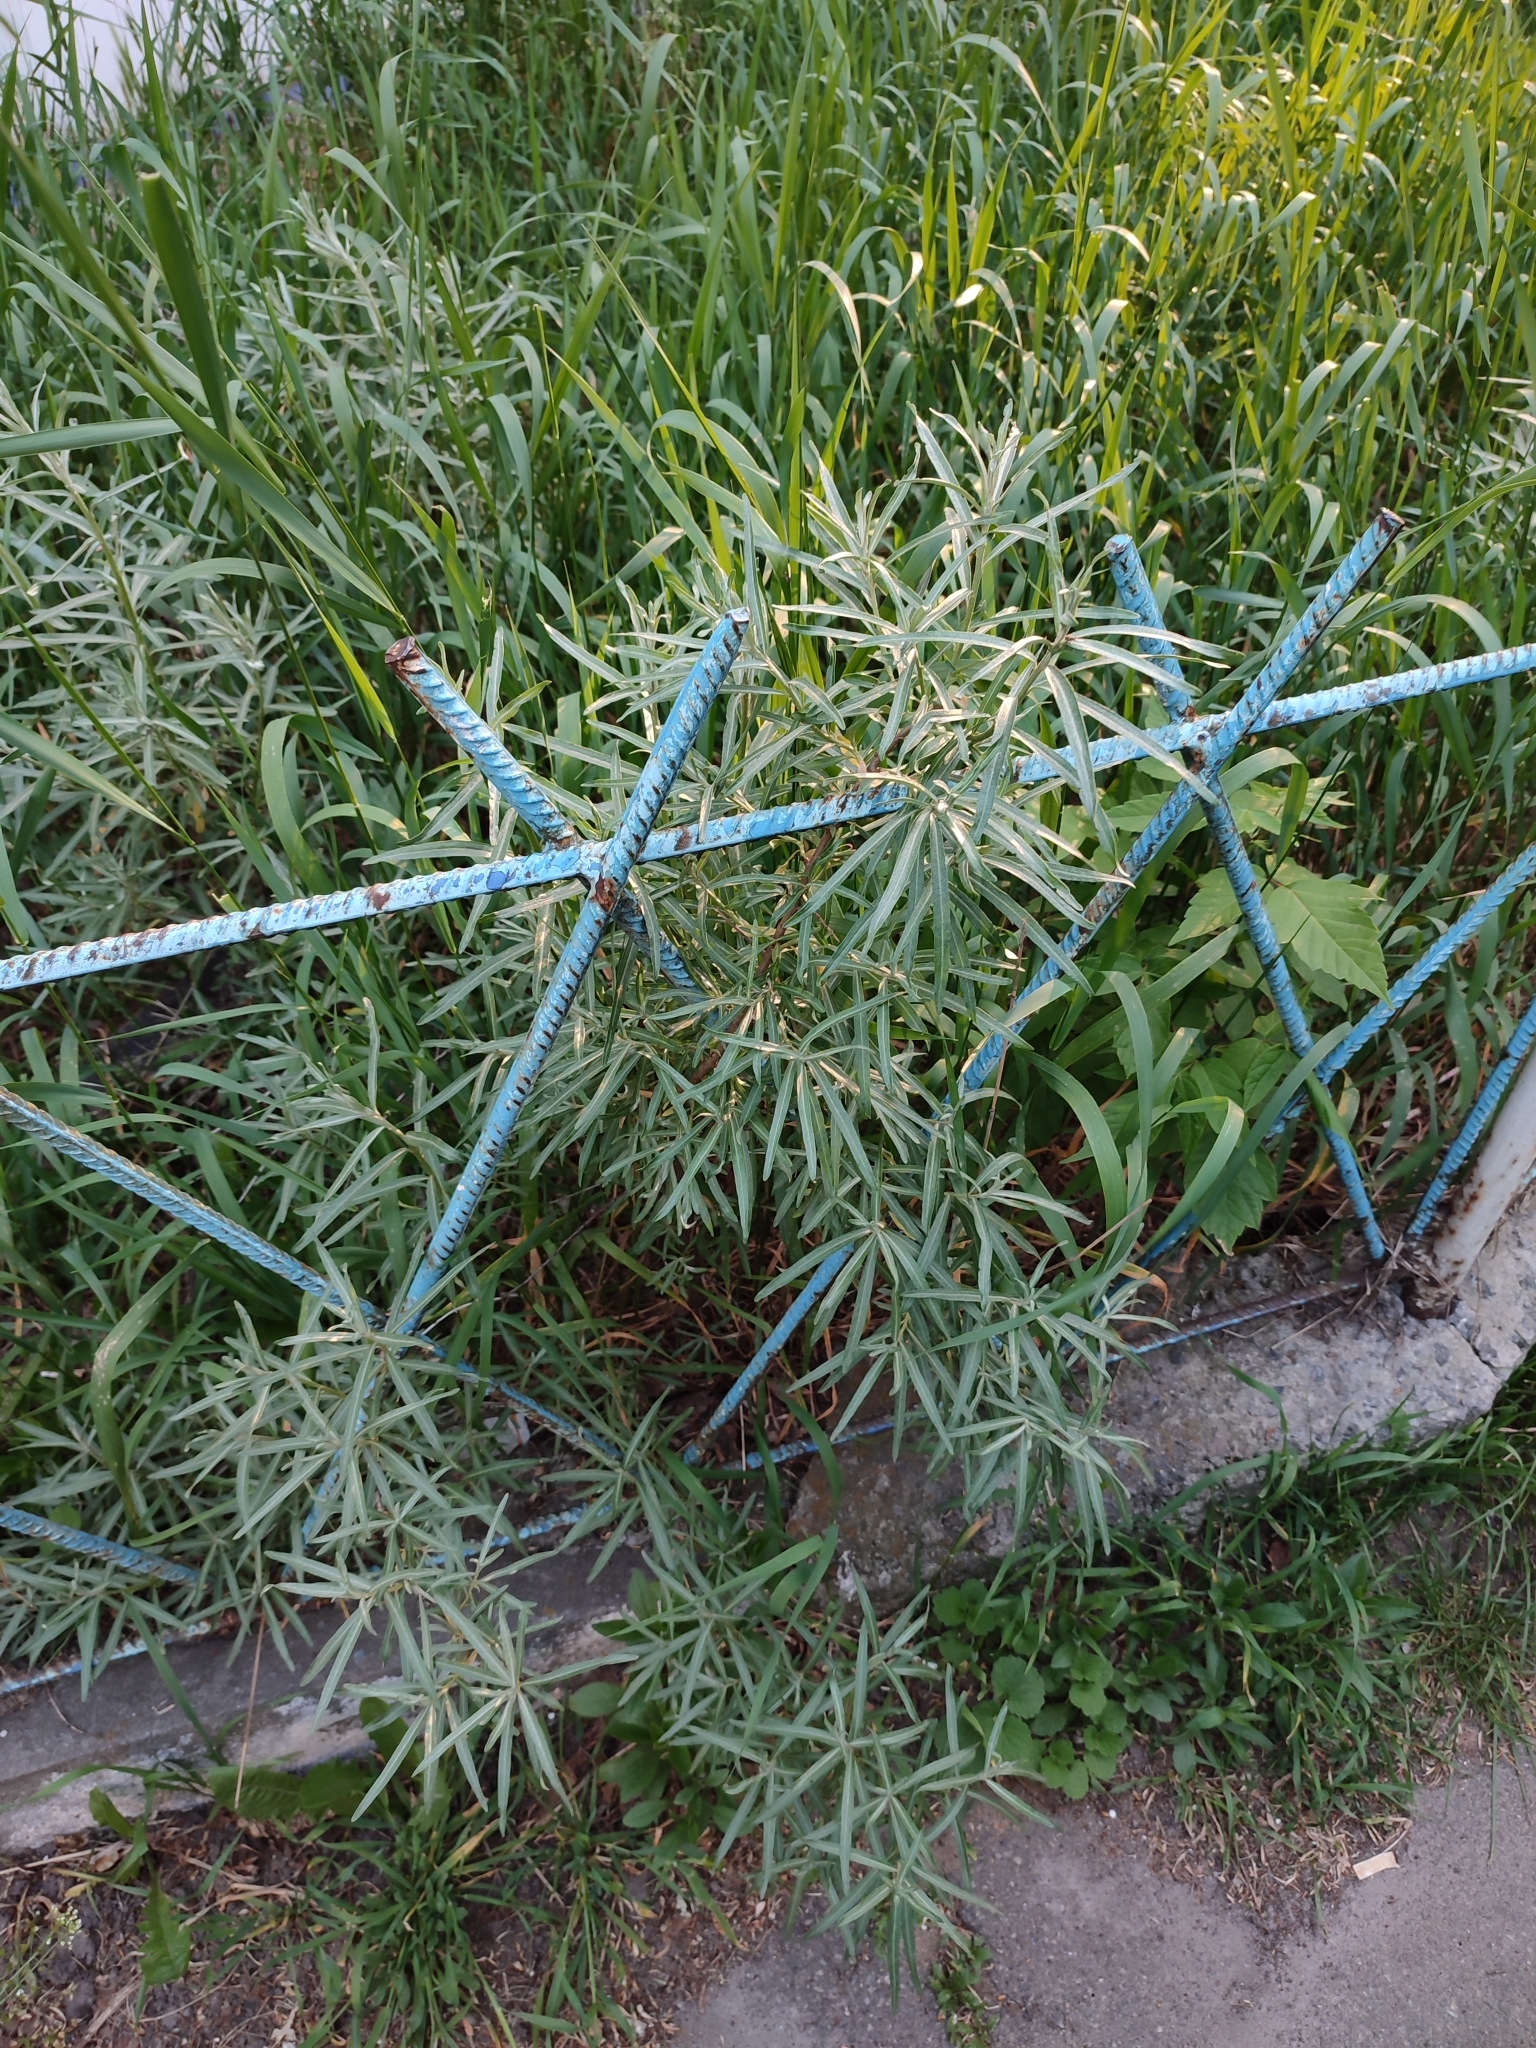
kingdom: Plantae
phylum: Tracheophyta
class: Magnoliopsida
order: Rosales
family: Elaeagnaceae
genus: Hippophae
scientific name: Hippophae rhamnoides
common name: Sea-buckthorn
